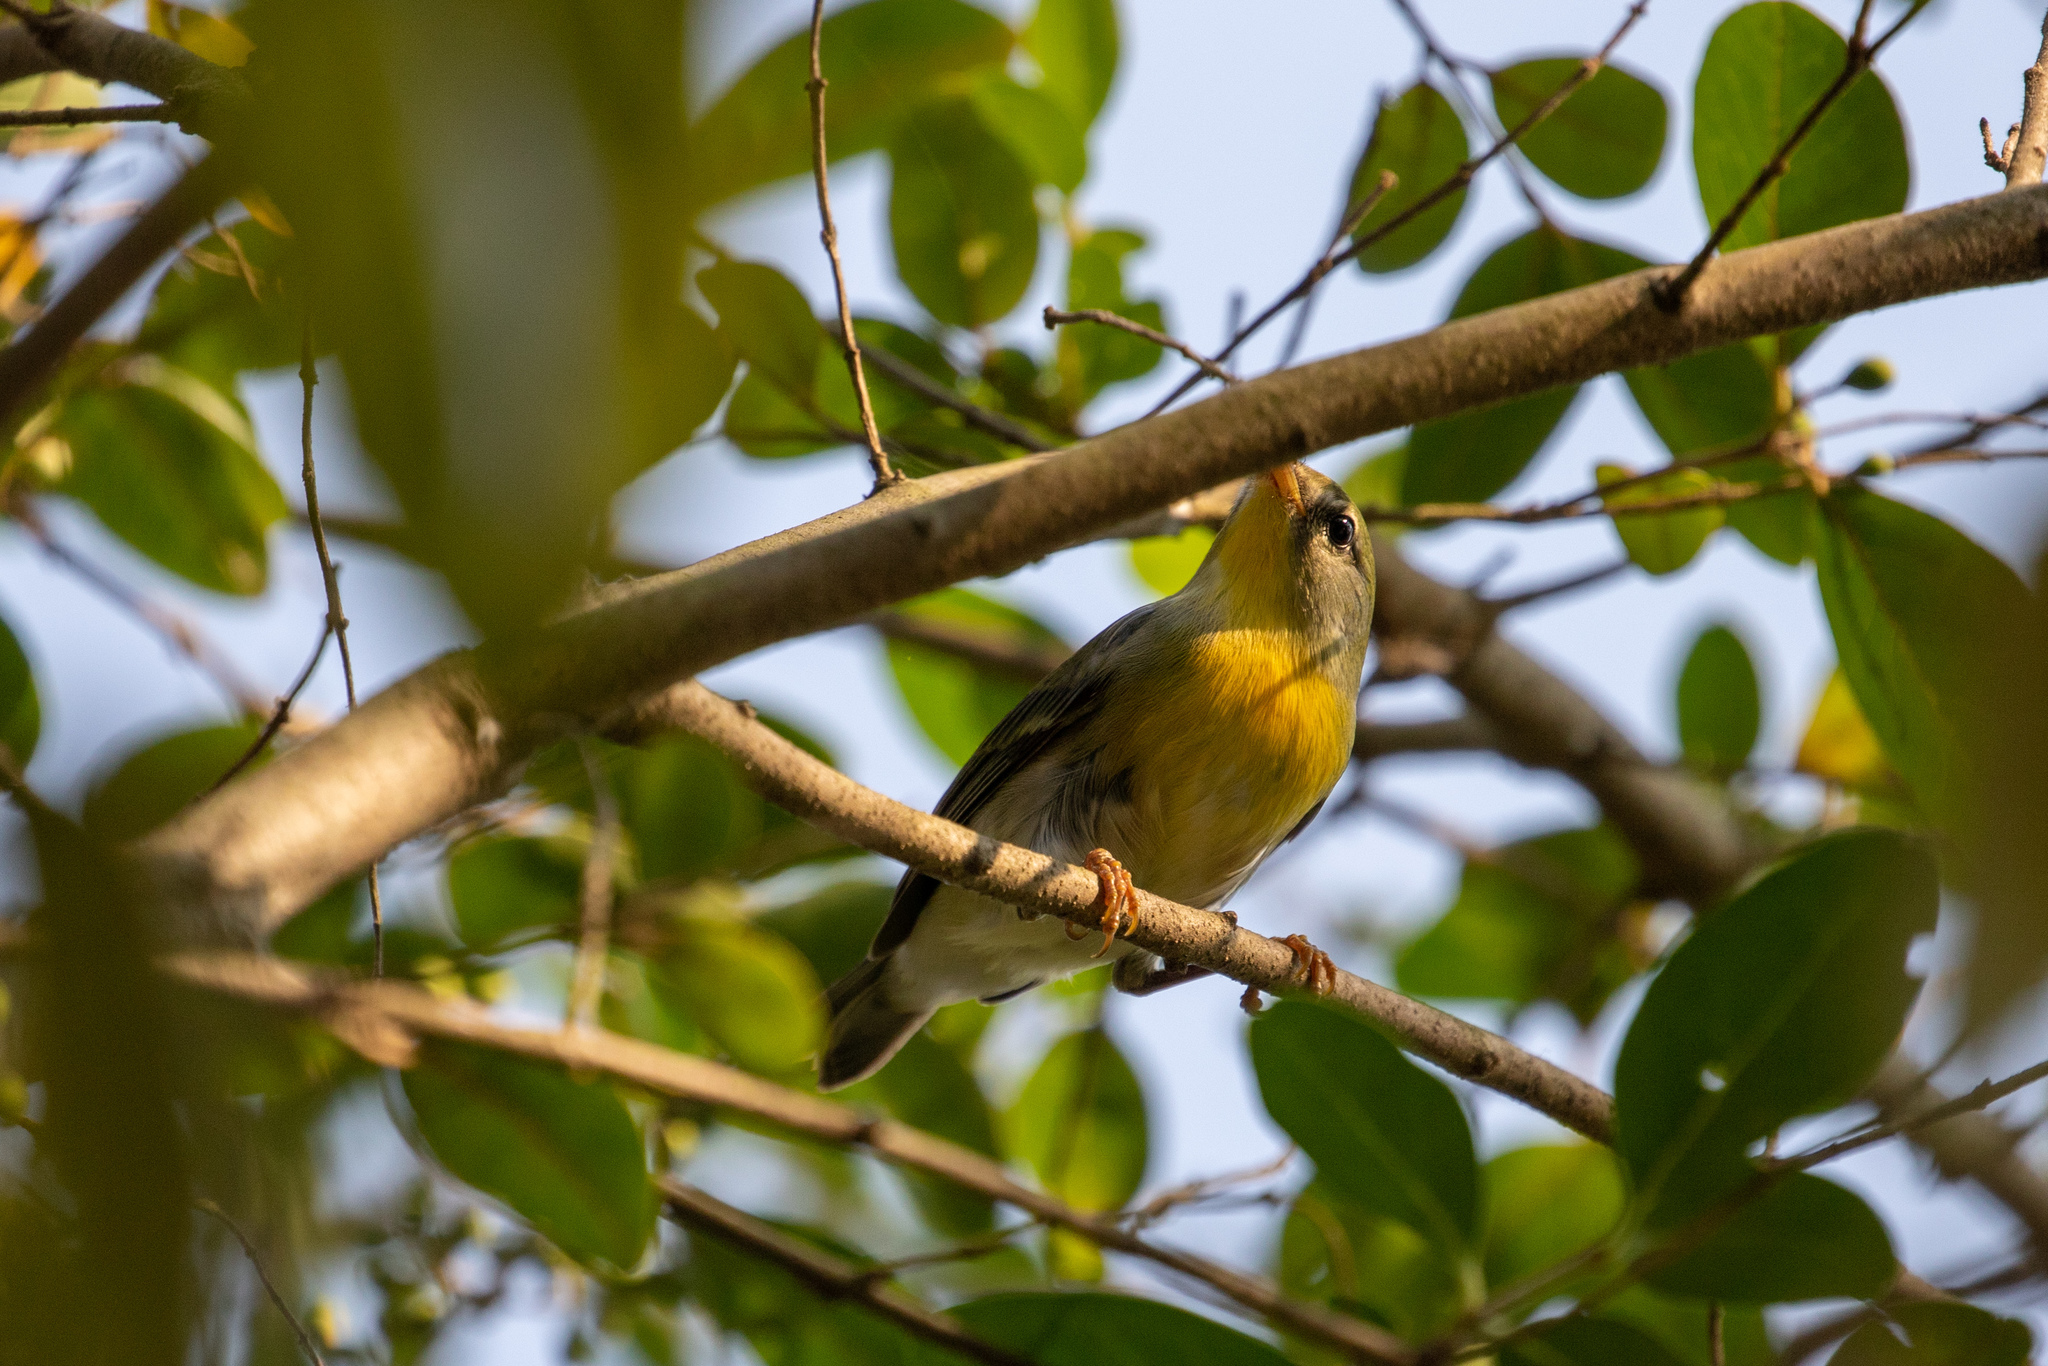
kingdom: Animalia
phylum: Chordata
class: Aves
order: Passeriformes
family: Parulidae
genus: Setophaga
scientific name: Setophaga americana
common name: Northern parula
